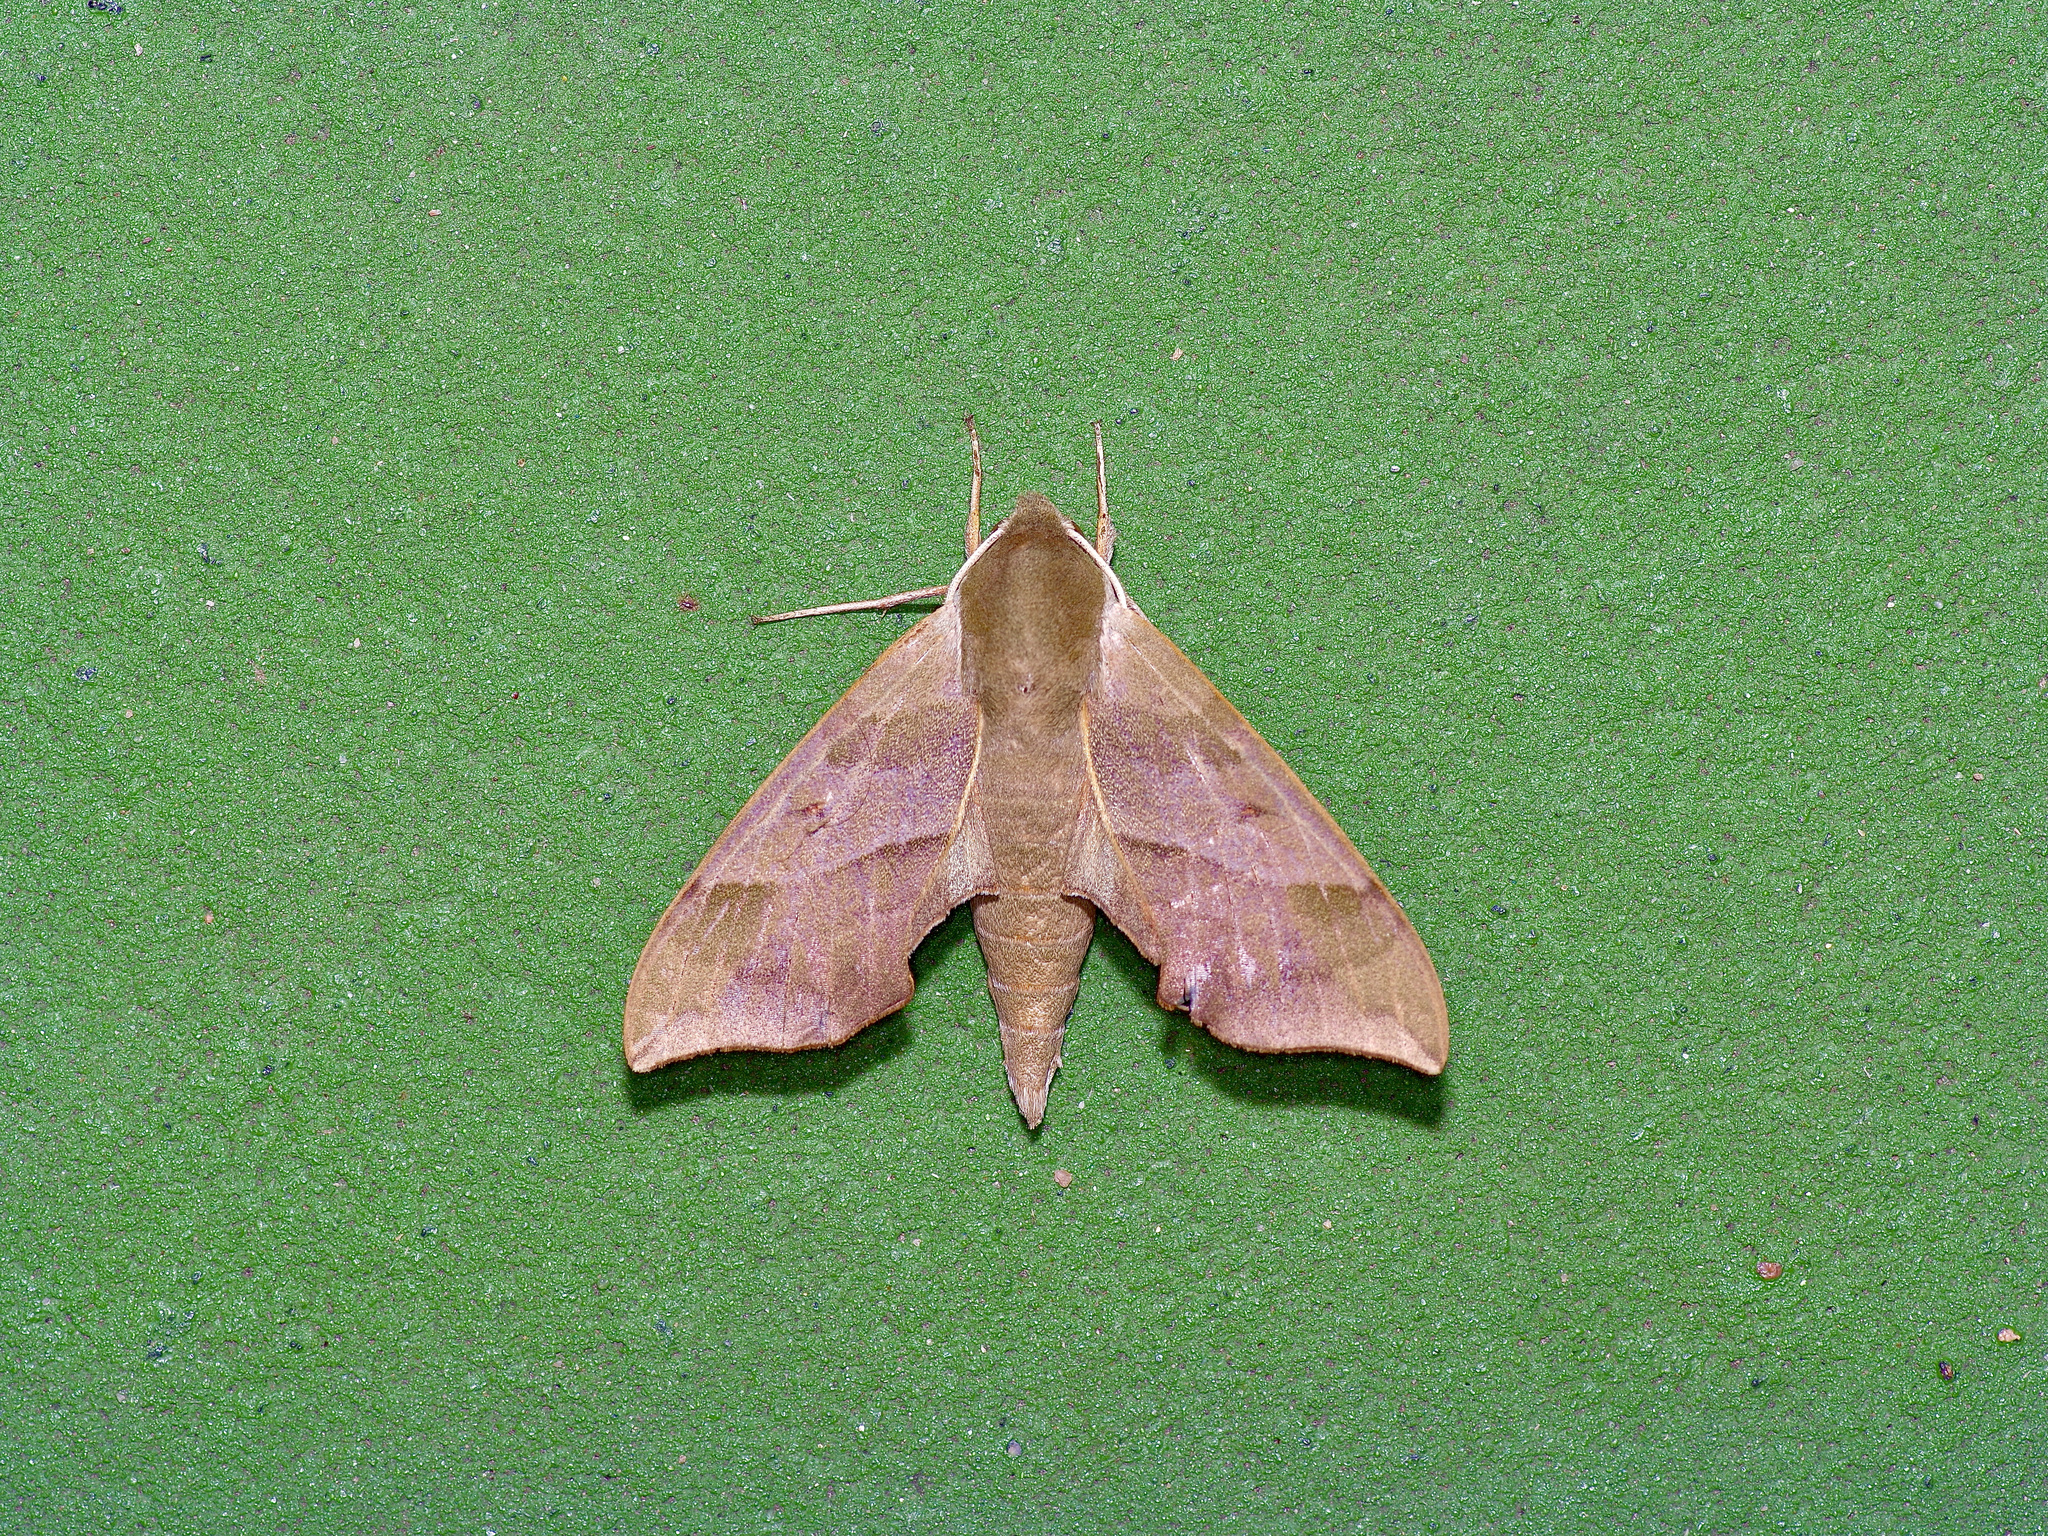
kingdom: Animalia
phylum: Arthropoda
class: Insecta
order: Lepidoptera
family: Sphingidae
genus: Darapsa
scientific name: Darapsa myron
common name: Hog sphinx
